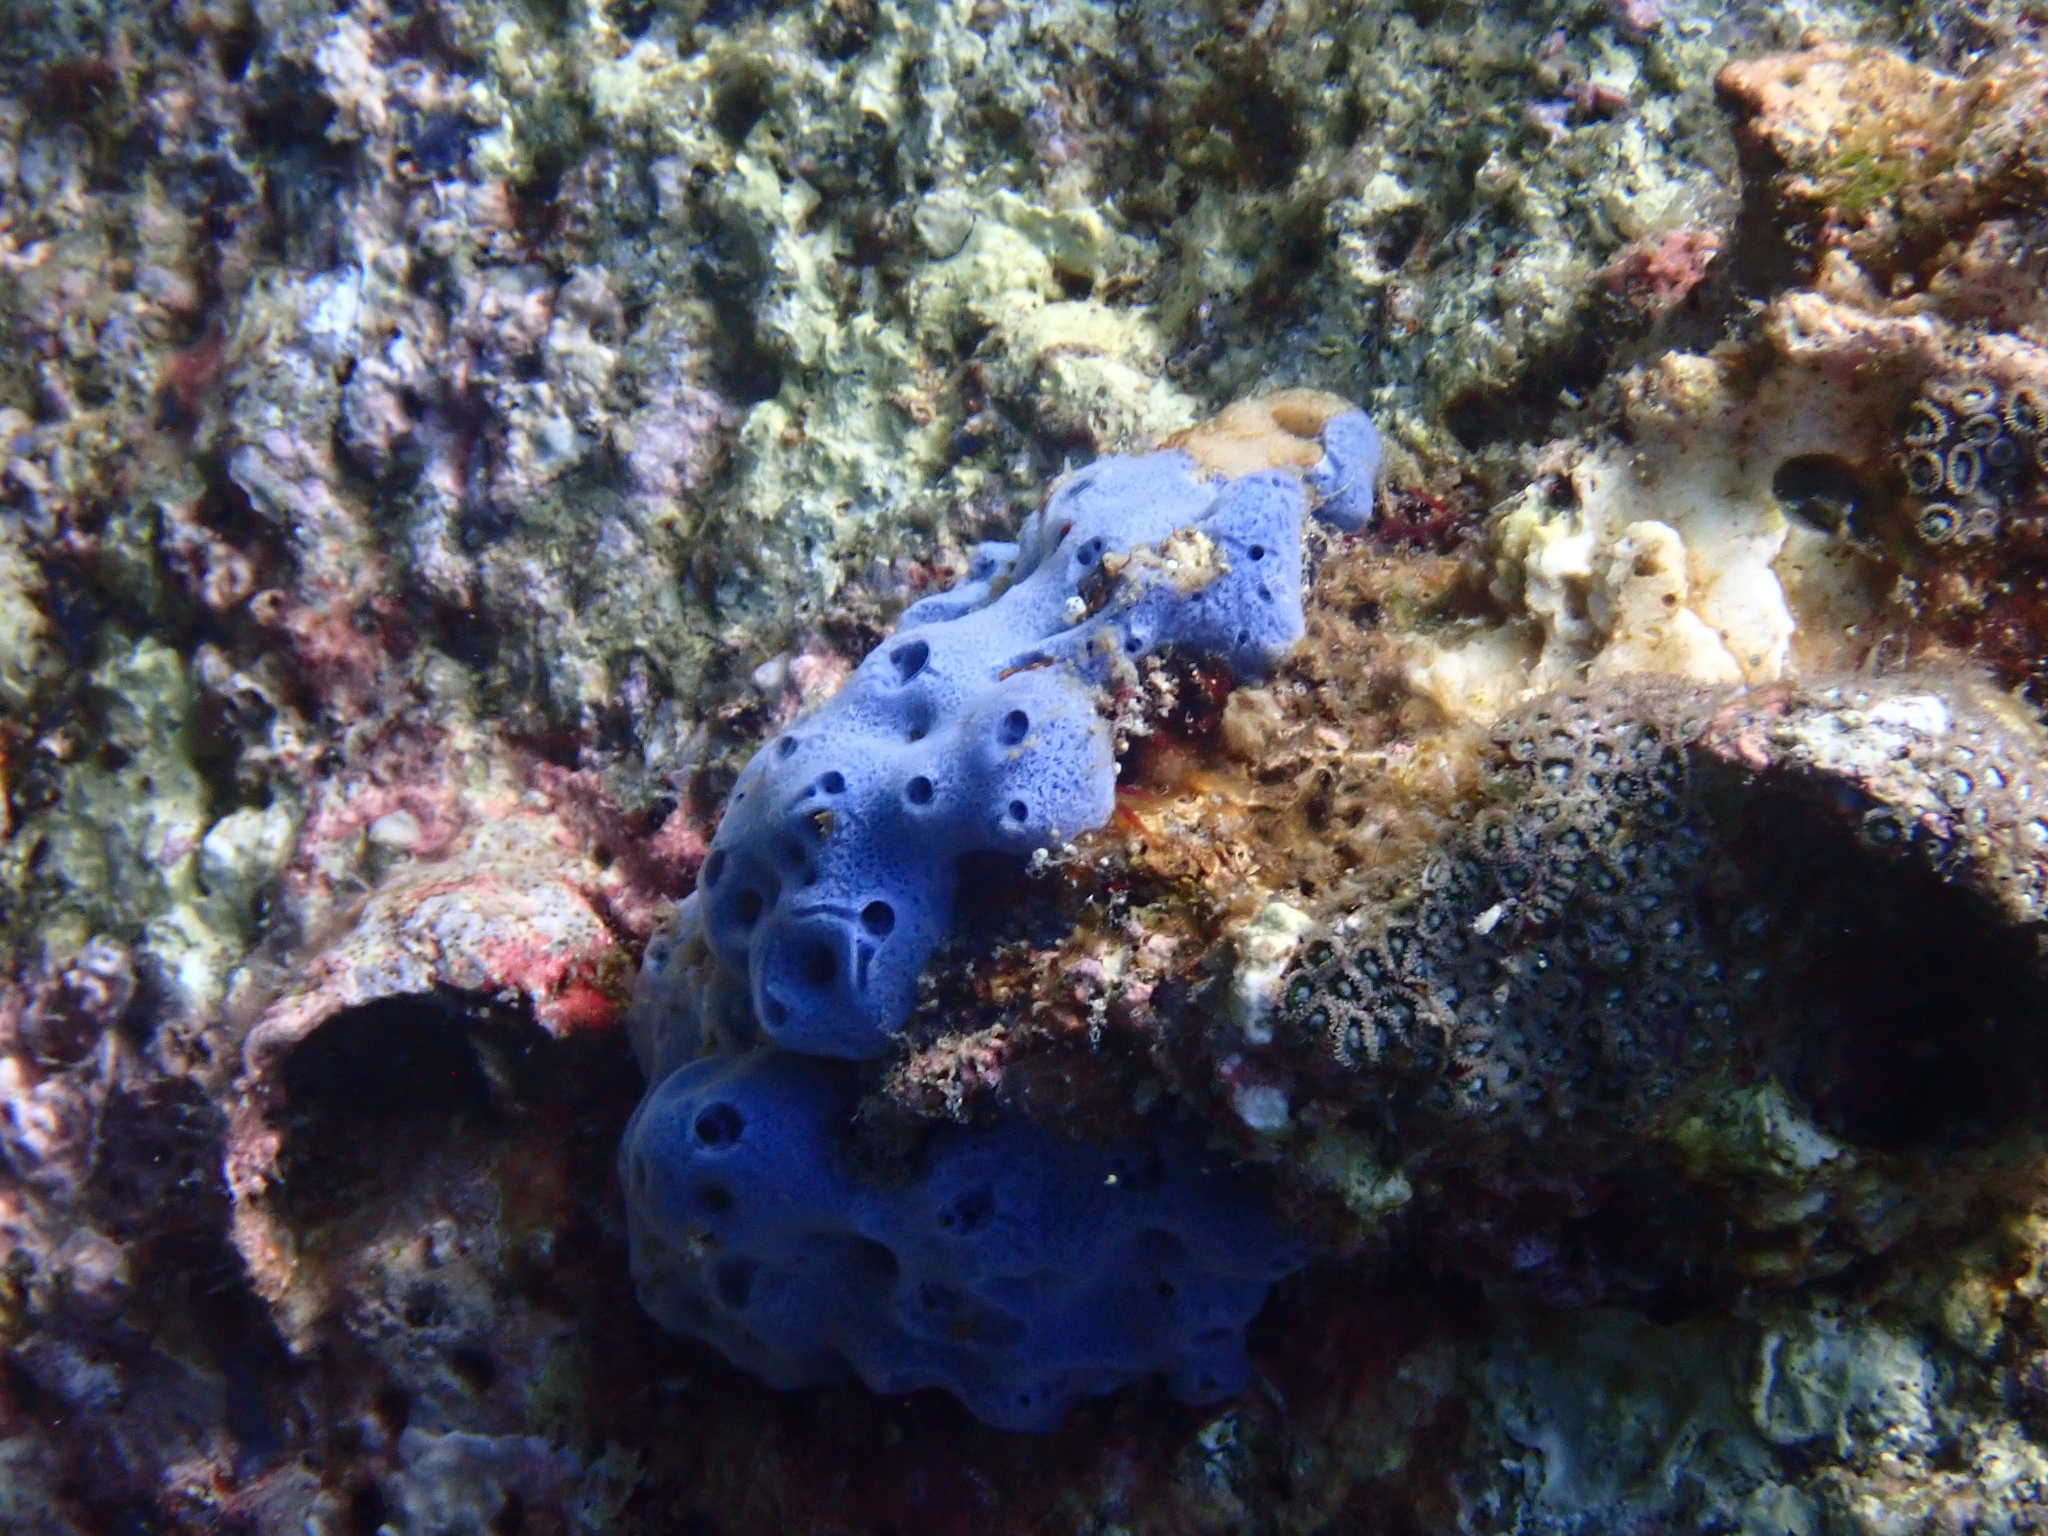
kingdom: Animalia
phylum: Porifera
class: Demospongiae
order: Haplosclerida
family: Niphatidae
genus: Amphimedon
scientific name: Amphimedon queenslandica
